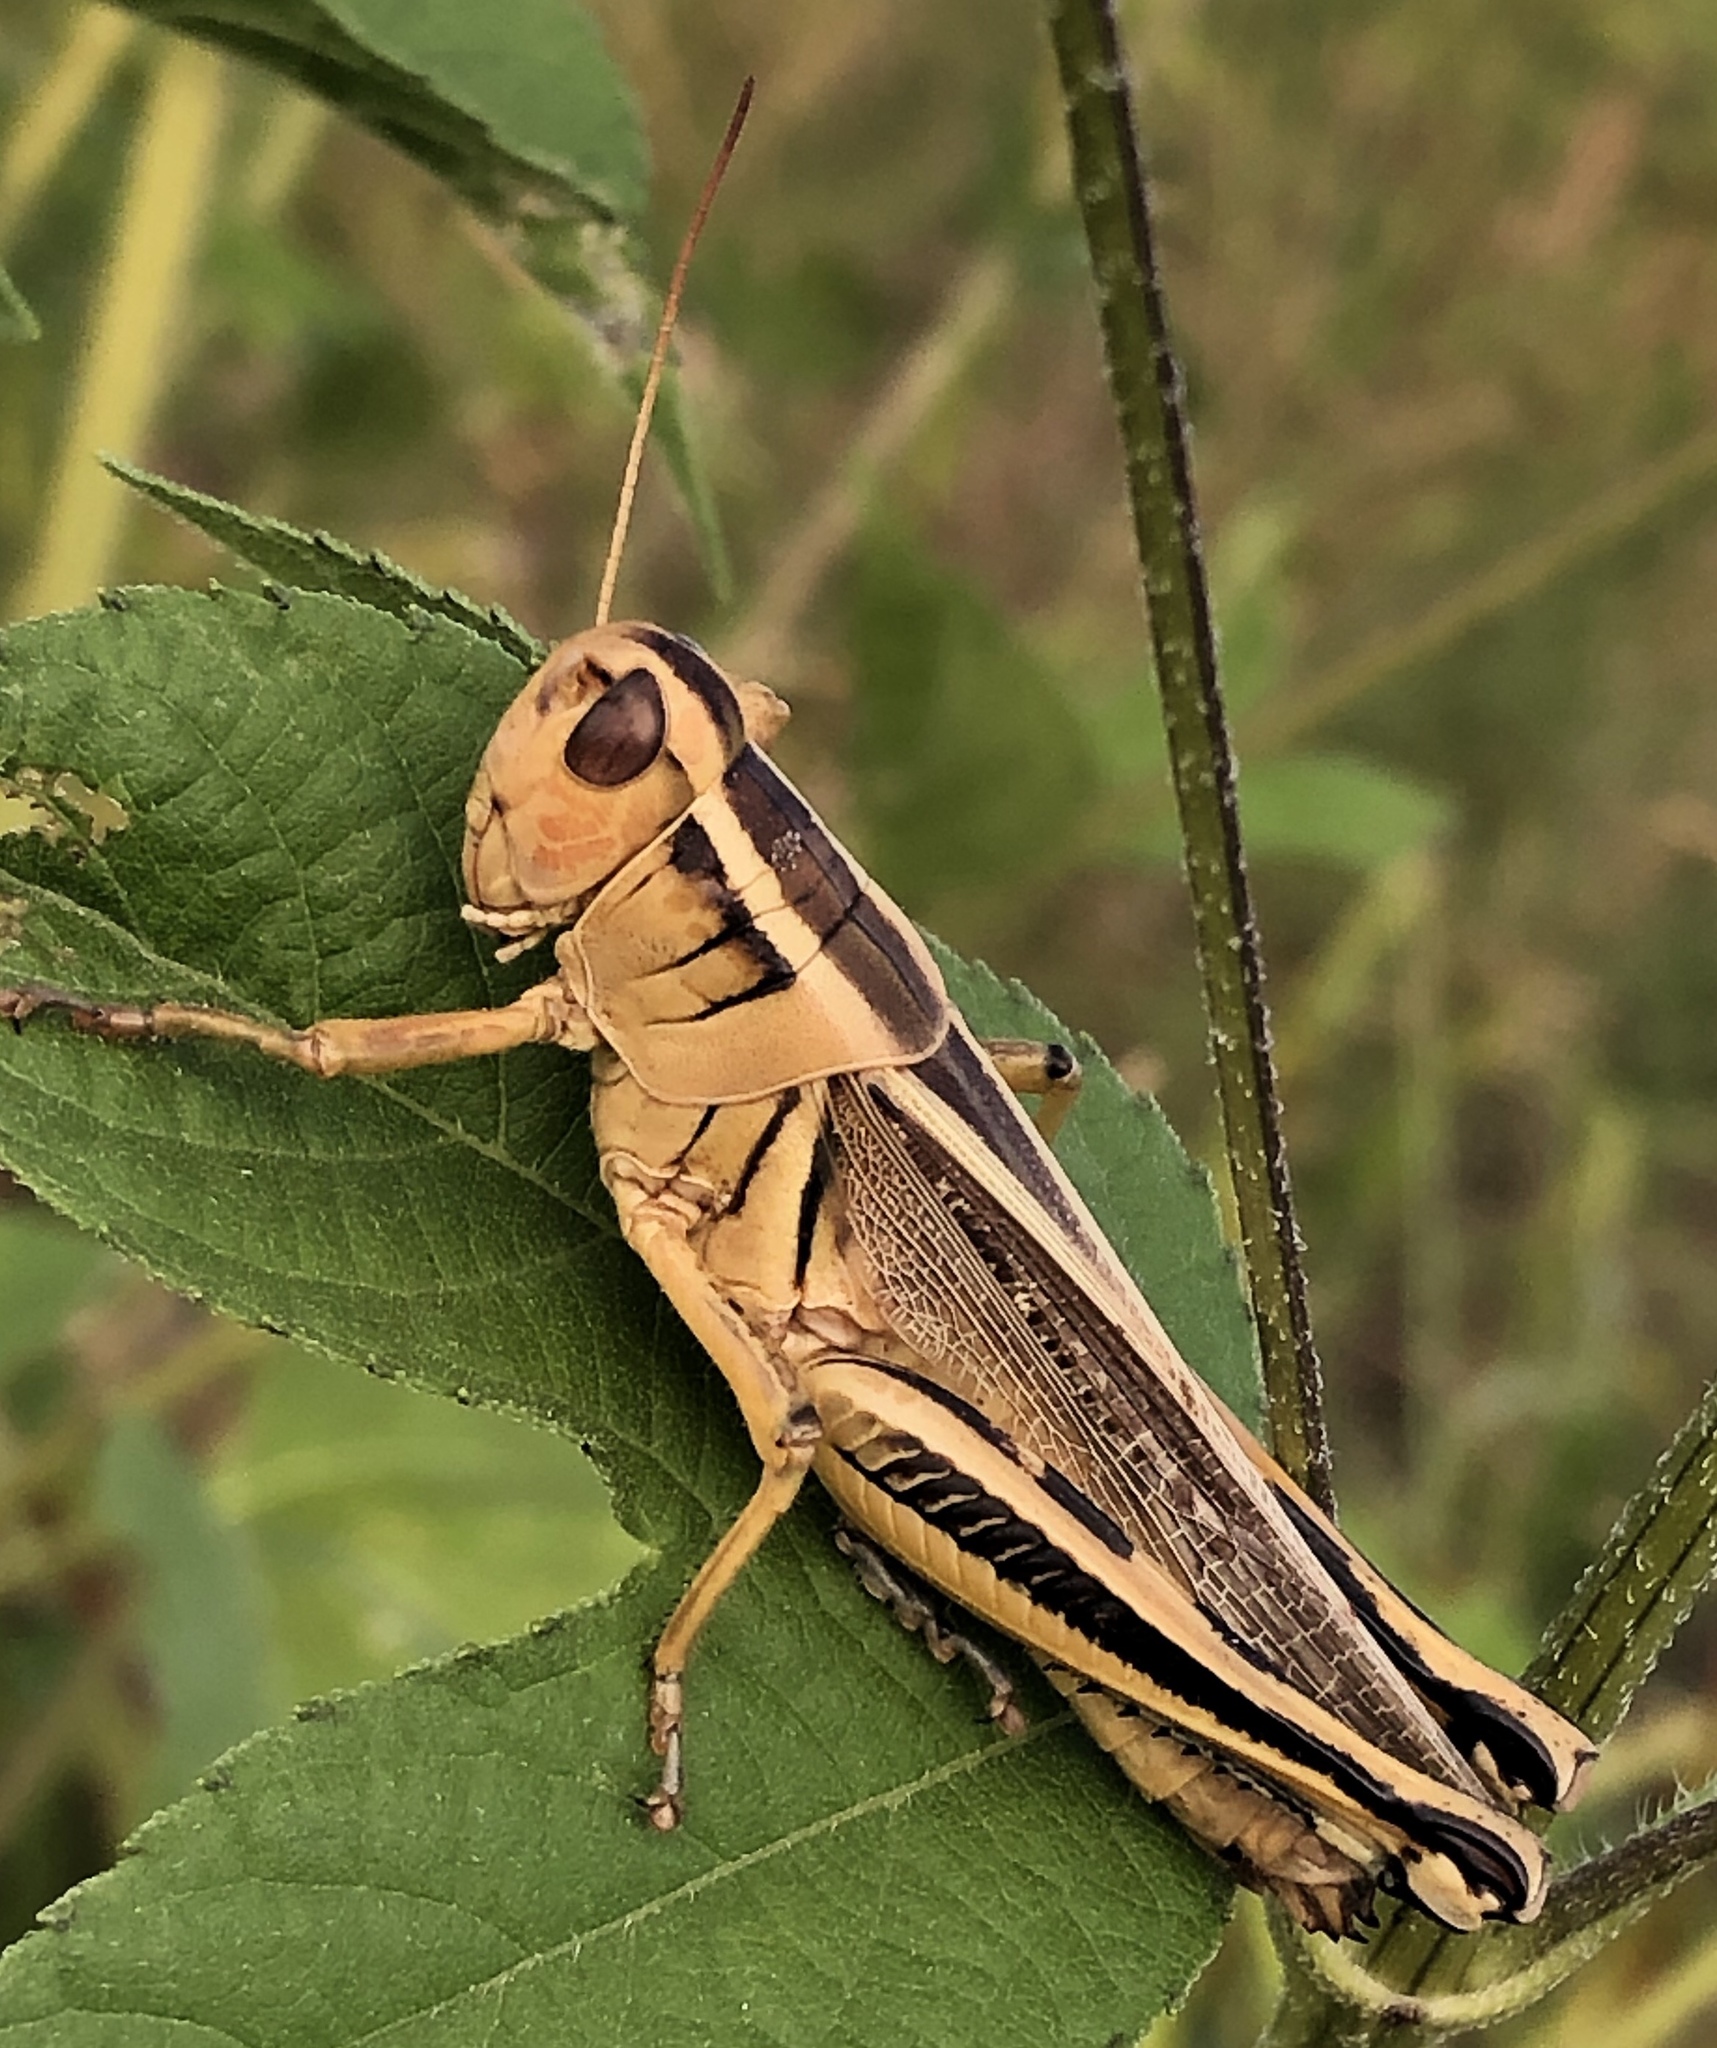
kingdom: Animalia
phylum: Arthropoda
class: Insecta
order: Orthoptera
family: Acrididae
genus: Melanoplus
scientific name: Melanoplus bivittatus
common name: Two-striped grasshopper
